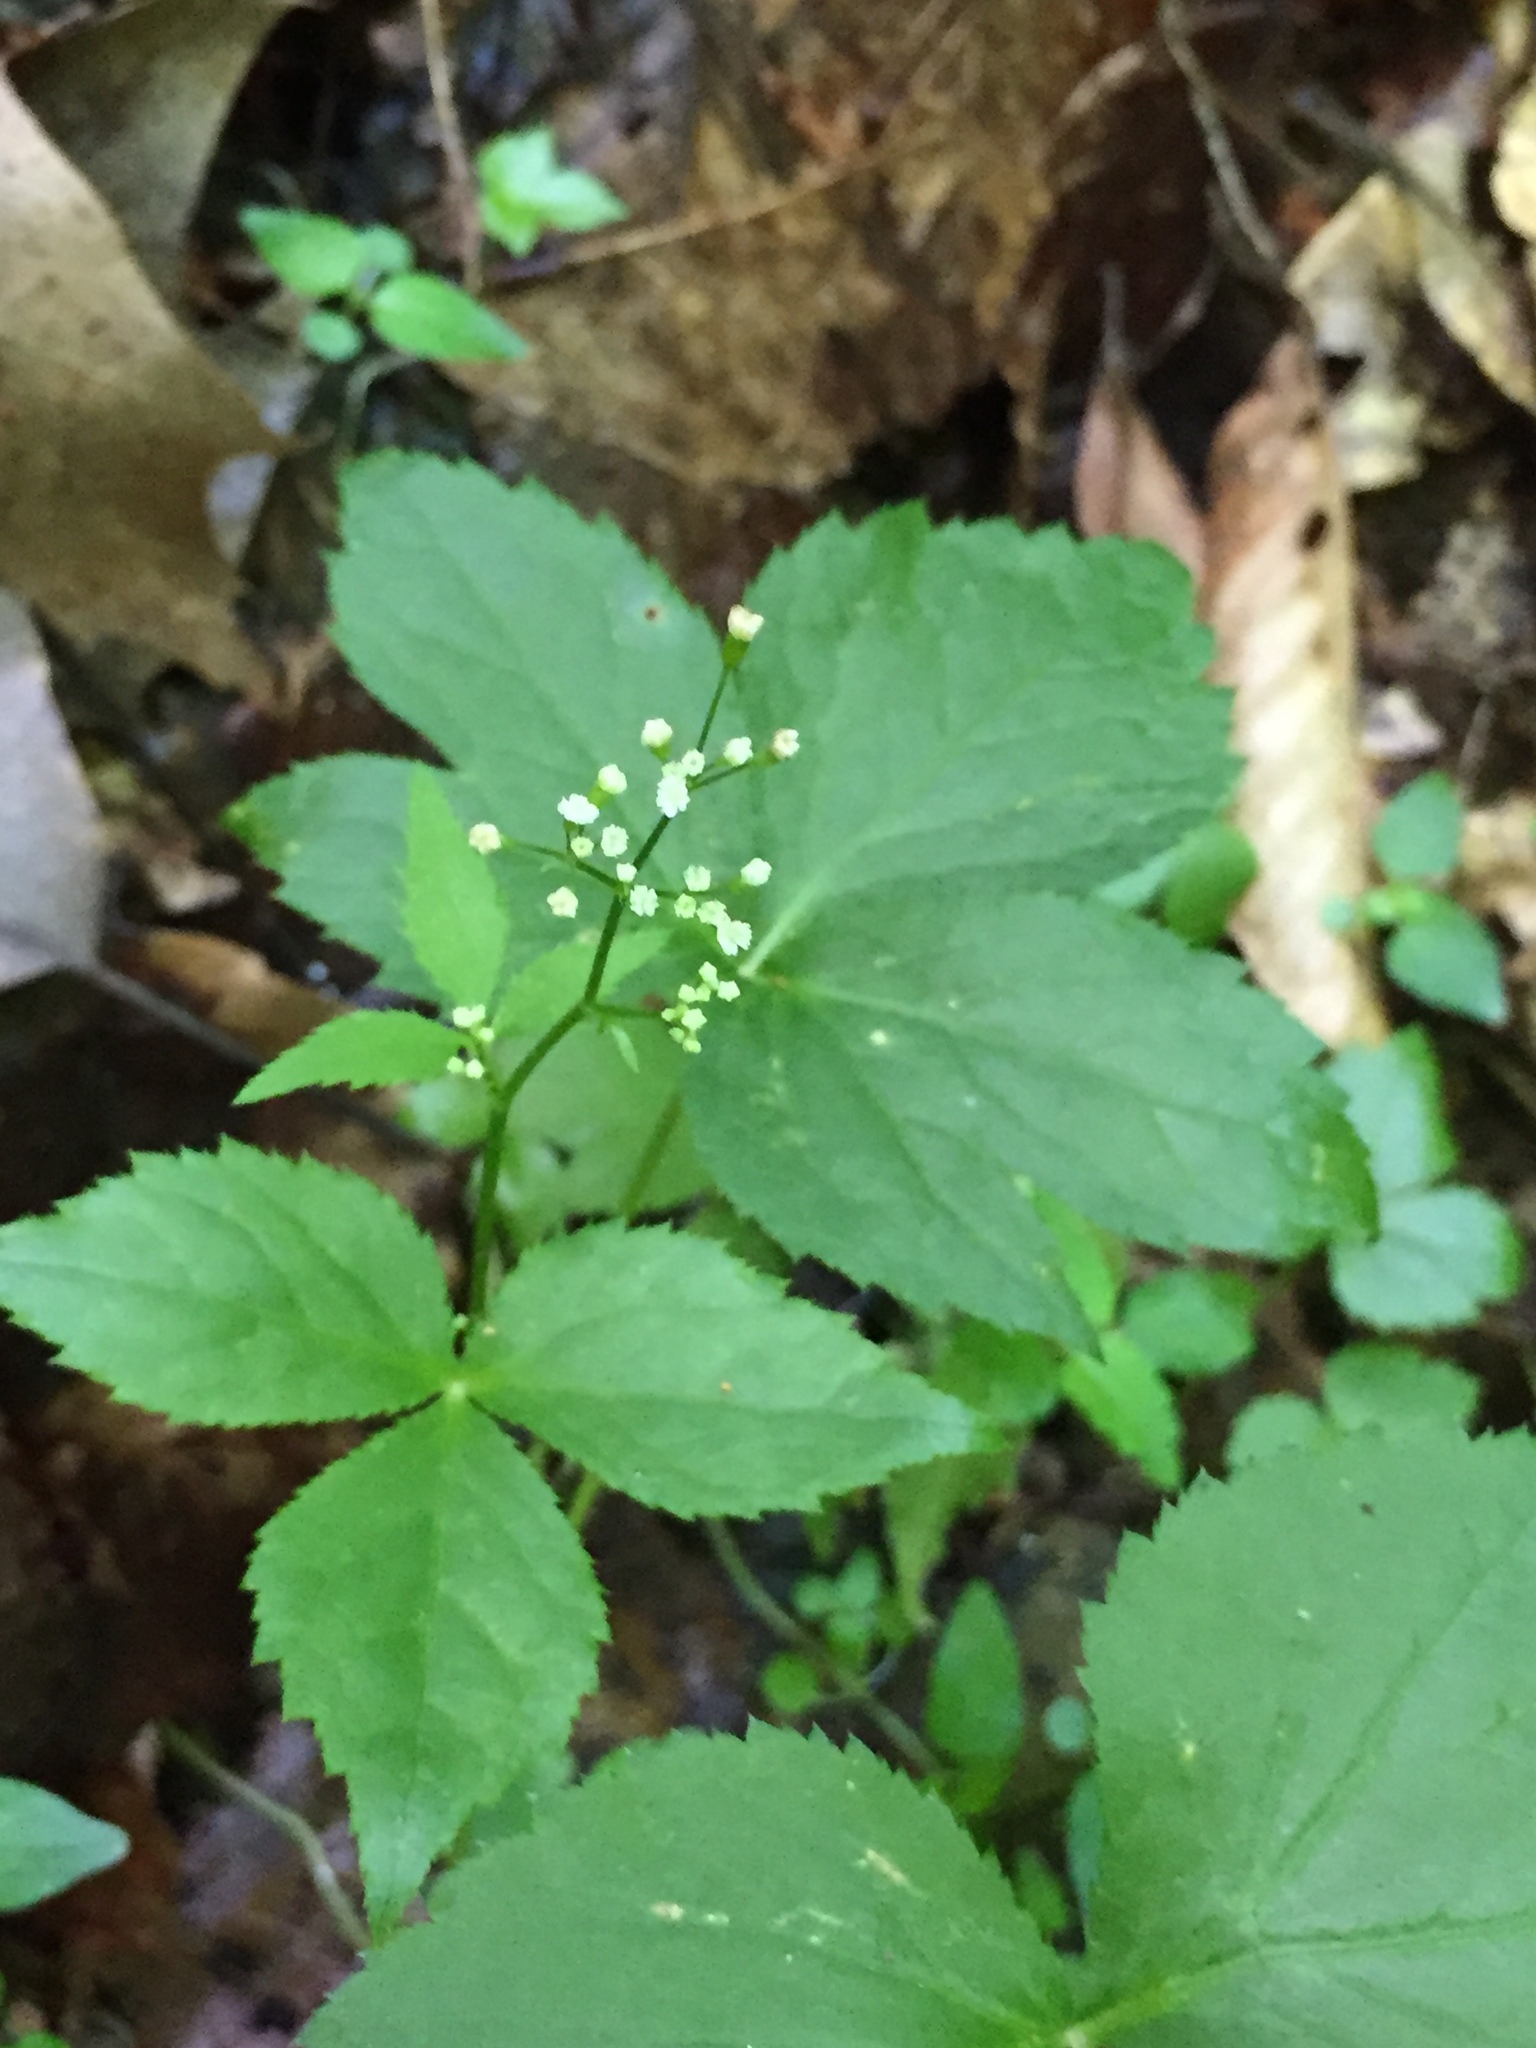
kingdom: Plantae
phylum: Tracheophyta
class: Magnoliopsida
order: Apiales
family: Apiaceae
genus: Cryptotaenia
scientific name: Cryptotaenia canadensis
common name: Honewort
